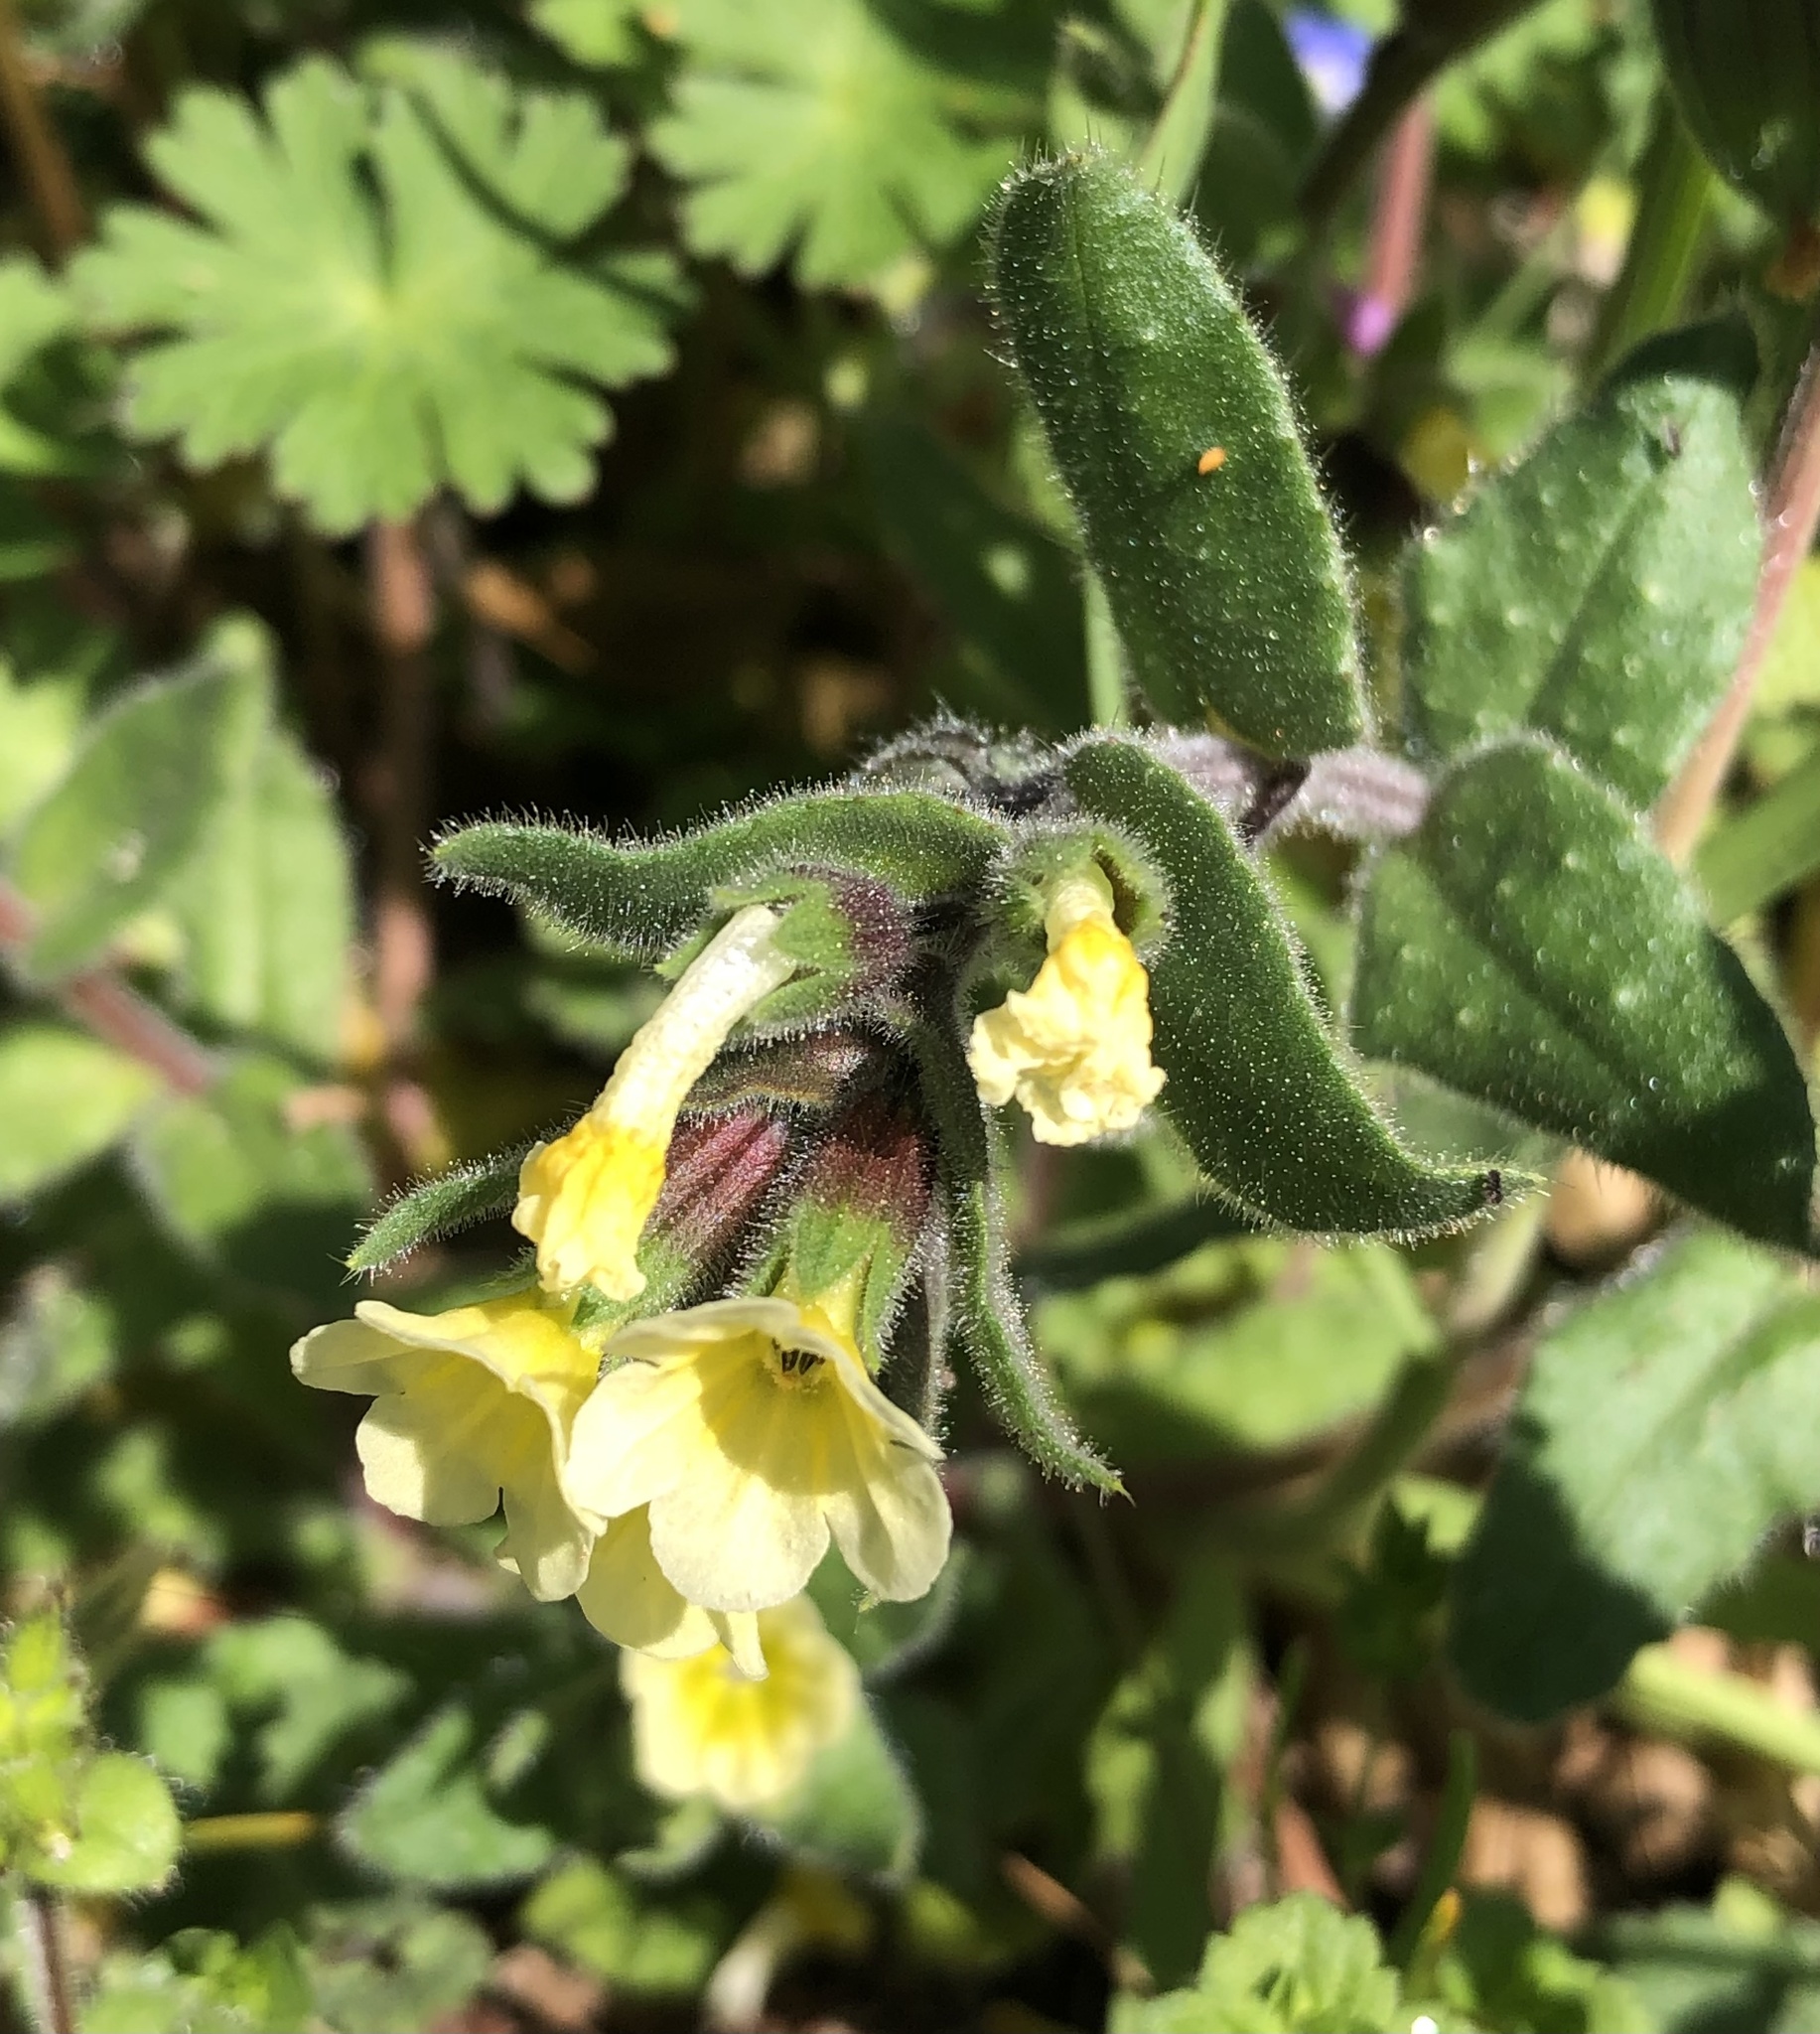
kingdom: Plantae
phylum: Tracheophyta
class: Magnoliopsida
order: Boraginales
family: Boraginaceae
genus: Nonea
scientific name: Nonea lutea
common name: Yellow nonea
